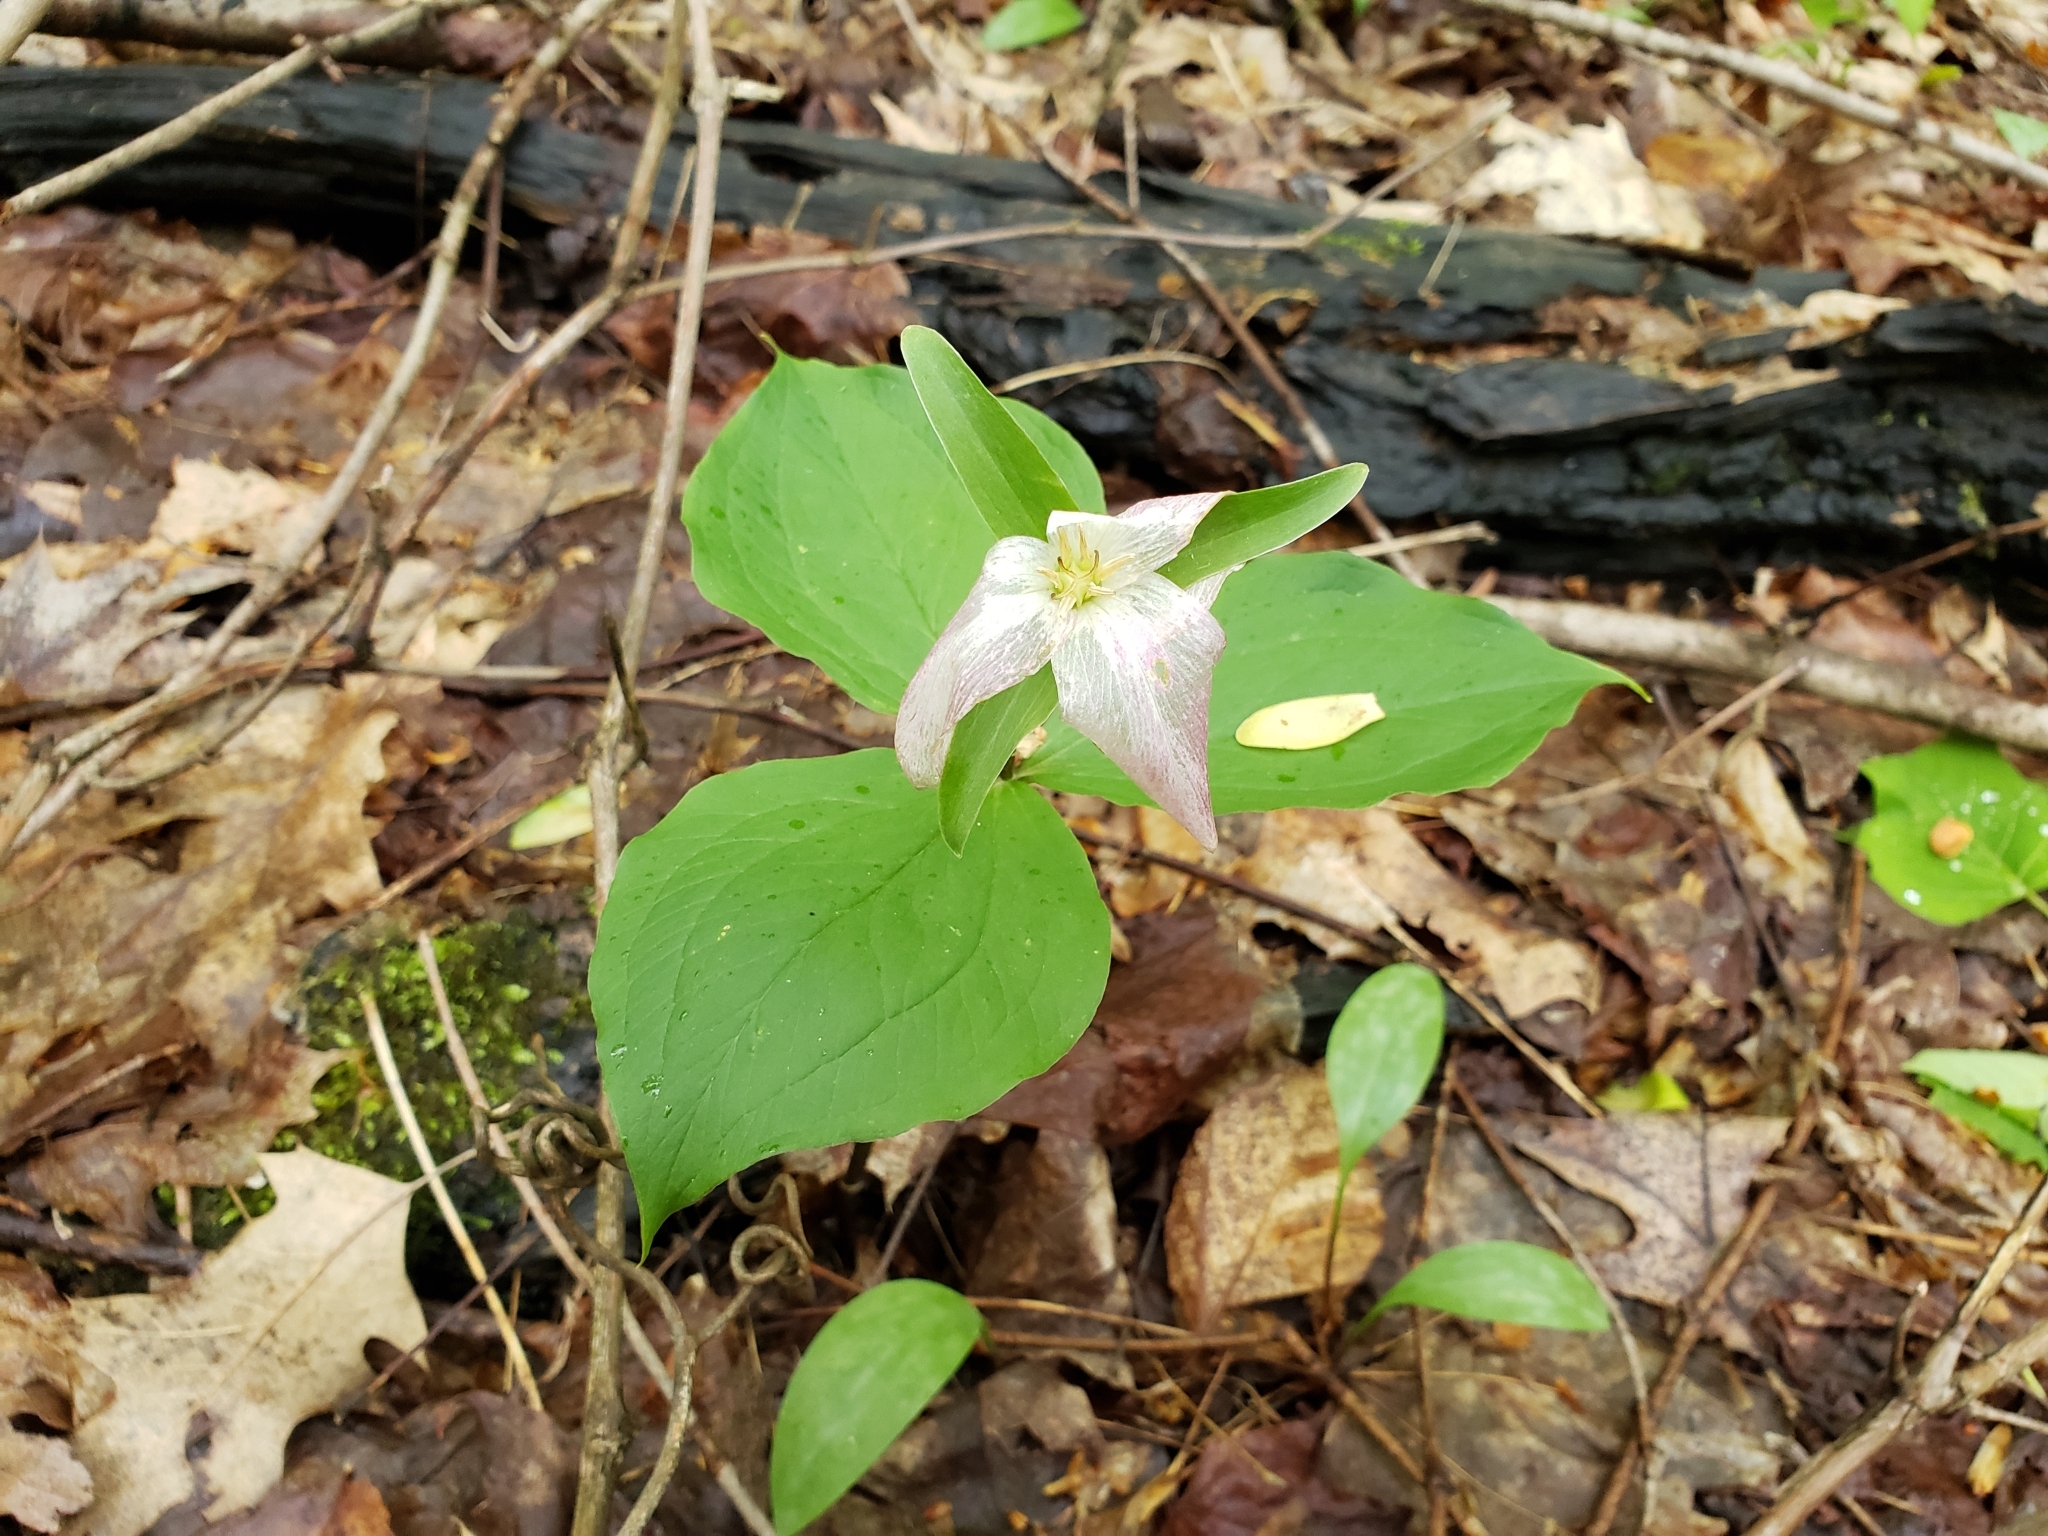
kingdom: Plantae
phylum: Tracheophyta
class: Liliopsida
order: Liliales
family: Melanthiaceae
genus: Trillium
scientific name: Trillium grandiflorum
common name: Great white trillium
